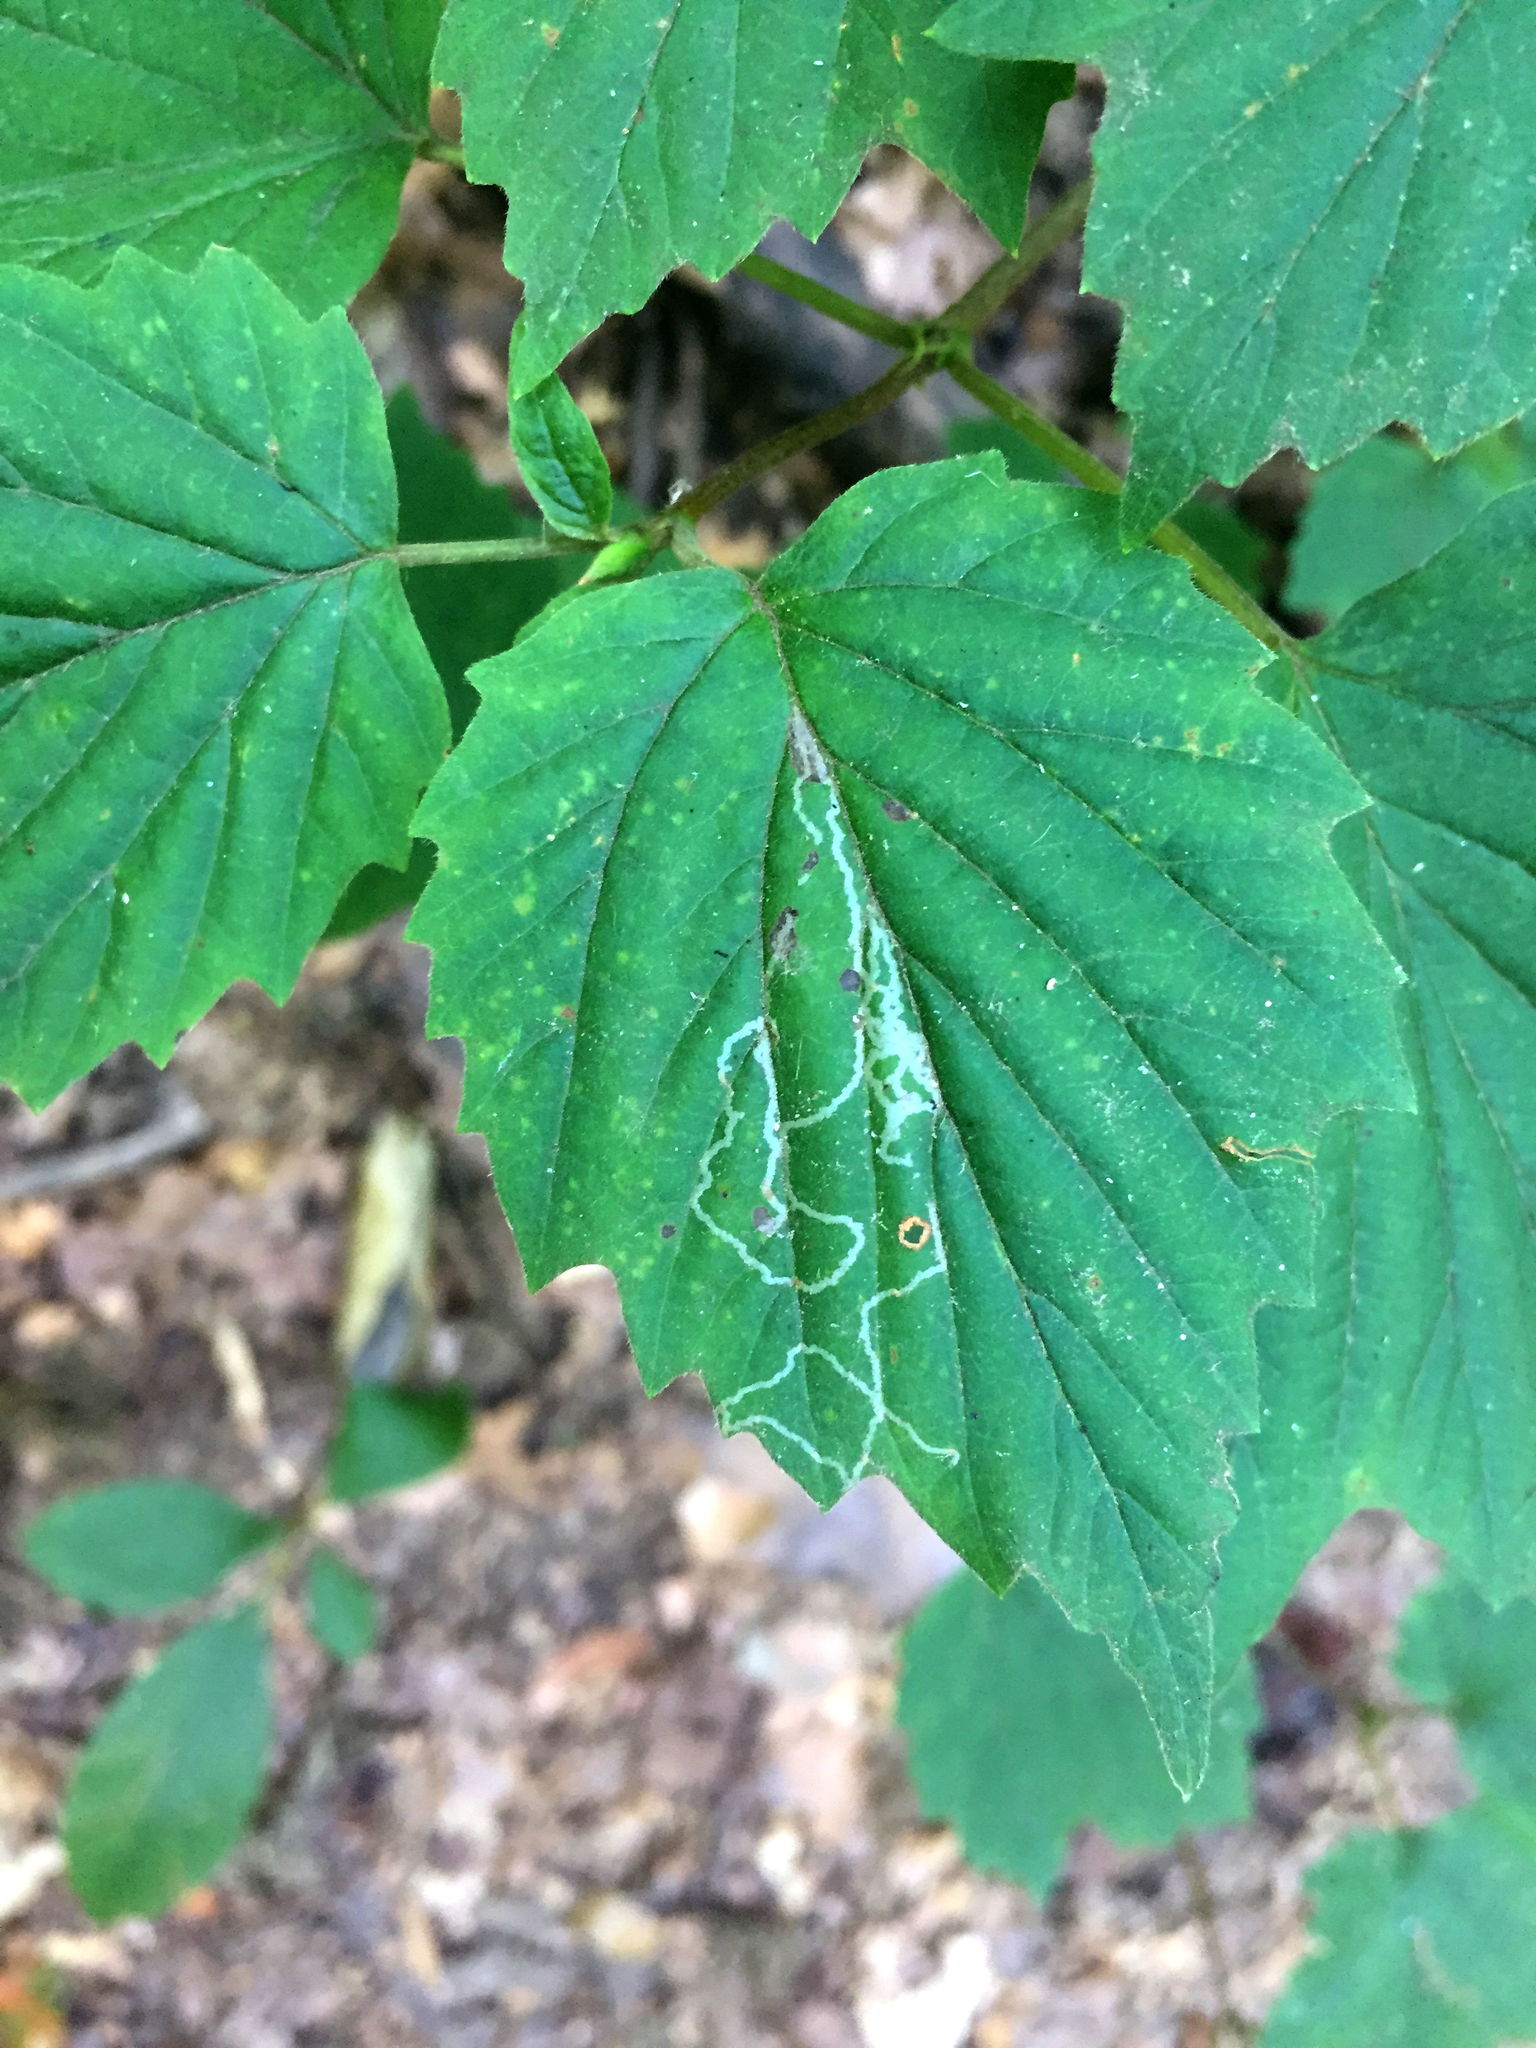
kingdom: Animalia
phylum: Arthropoda
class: Insecta
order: Lepidoptera
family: Gracillariidae
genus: Marmara
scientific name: Marmara viburnella
